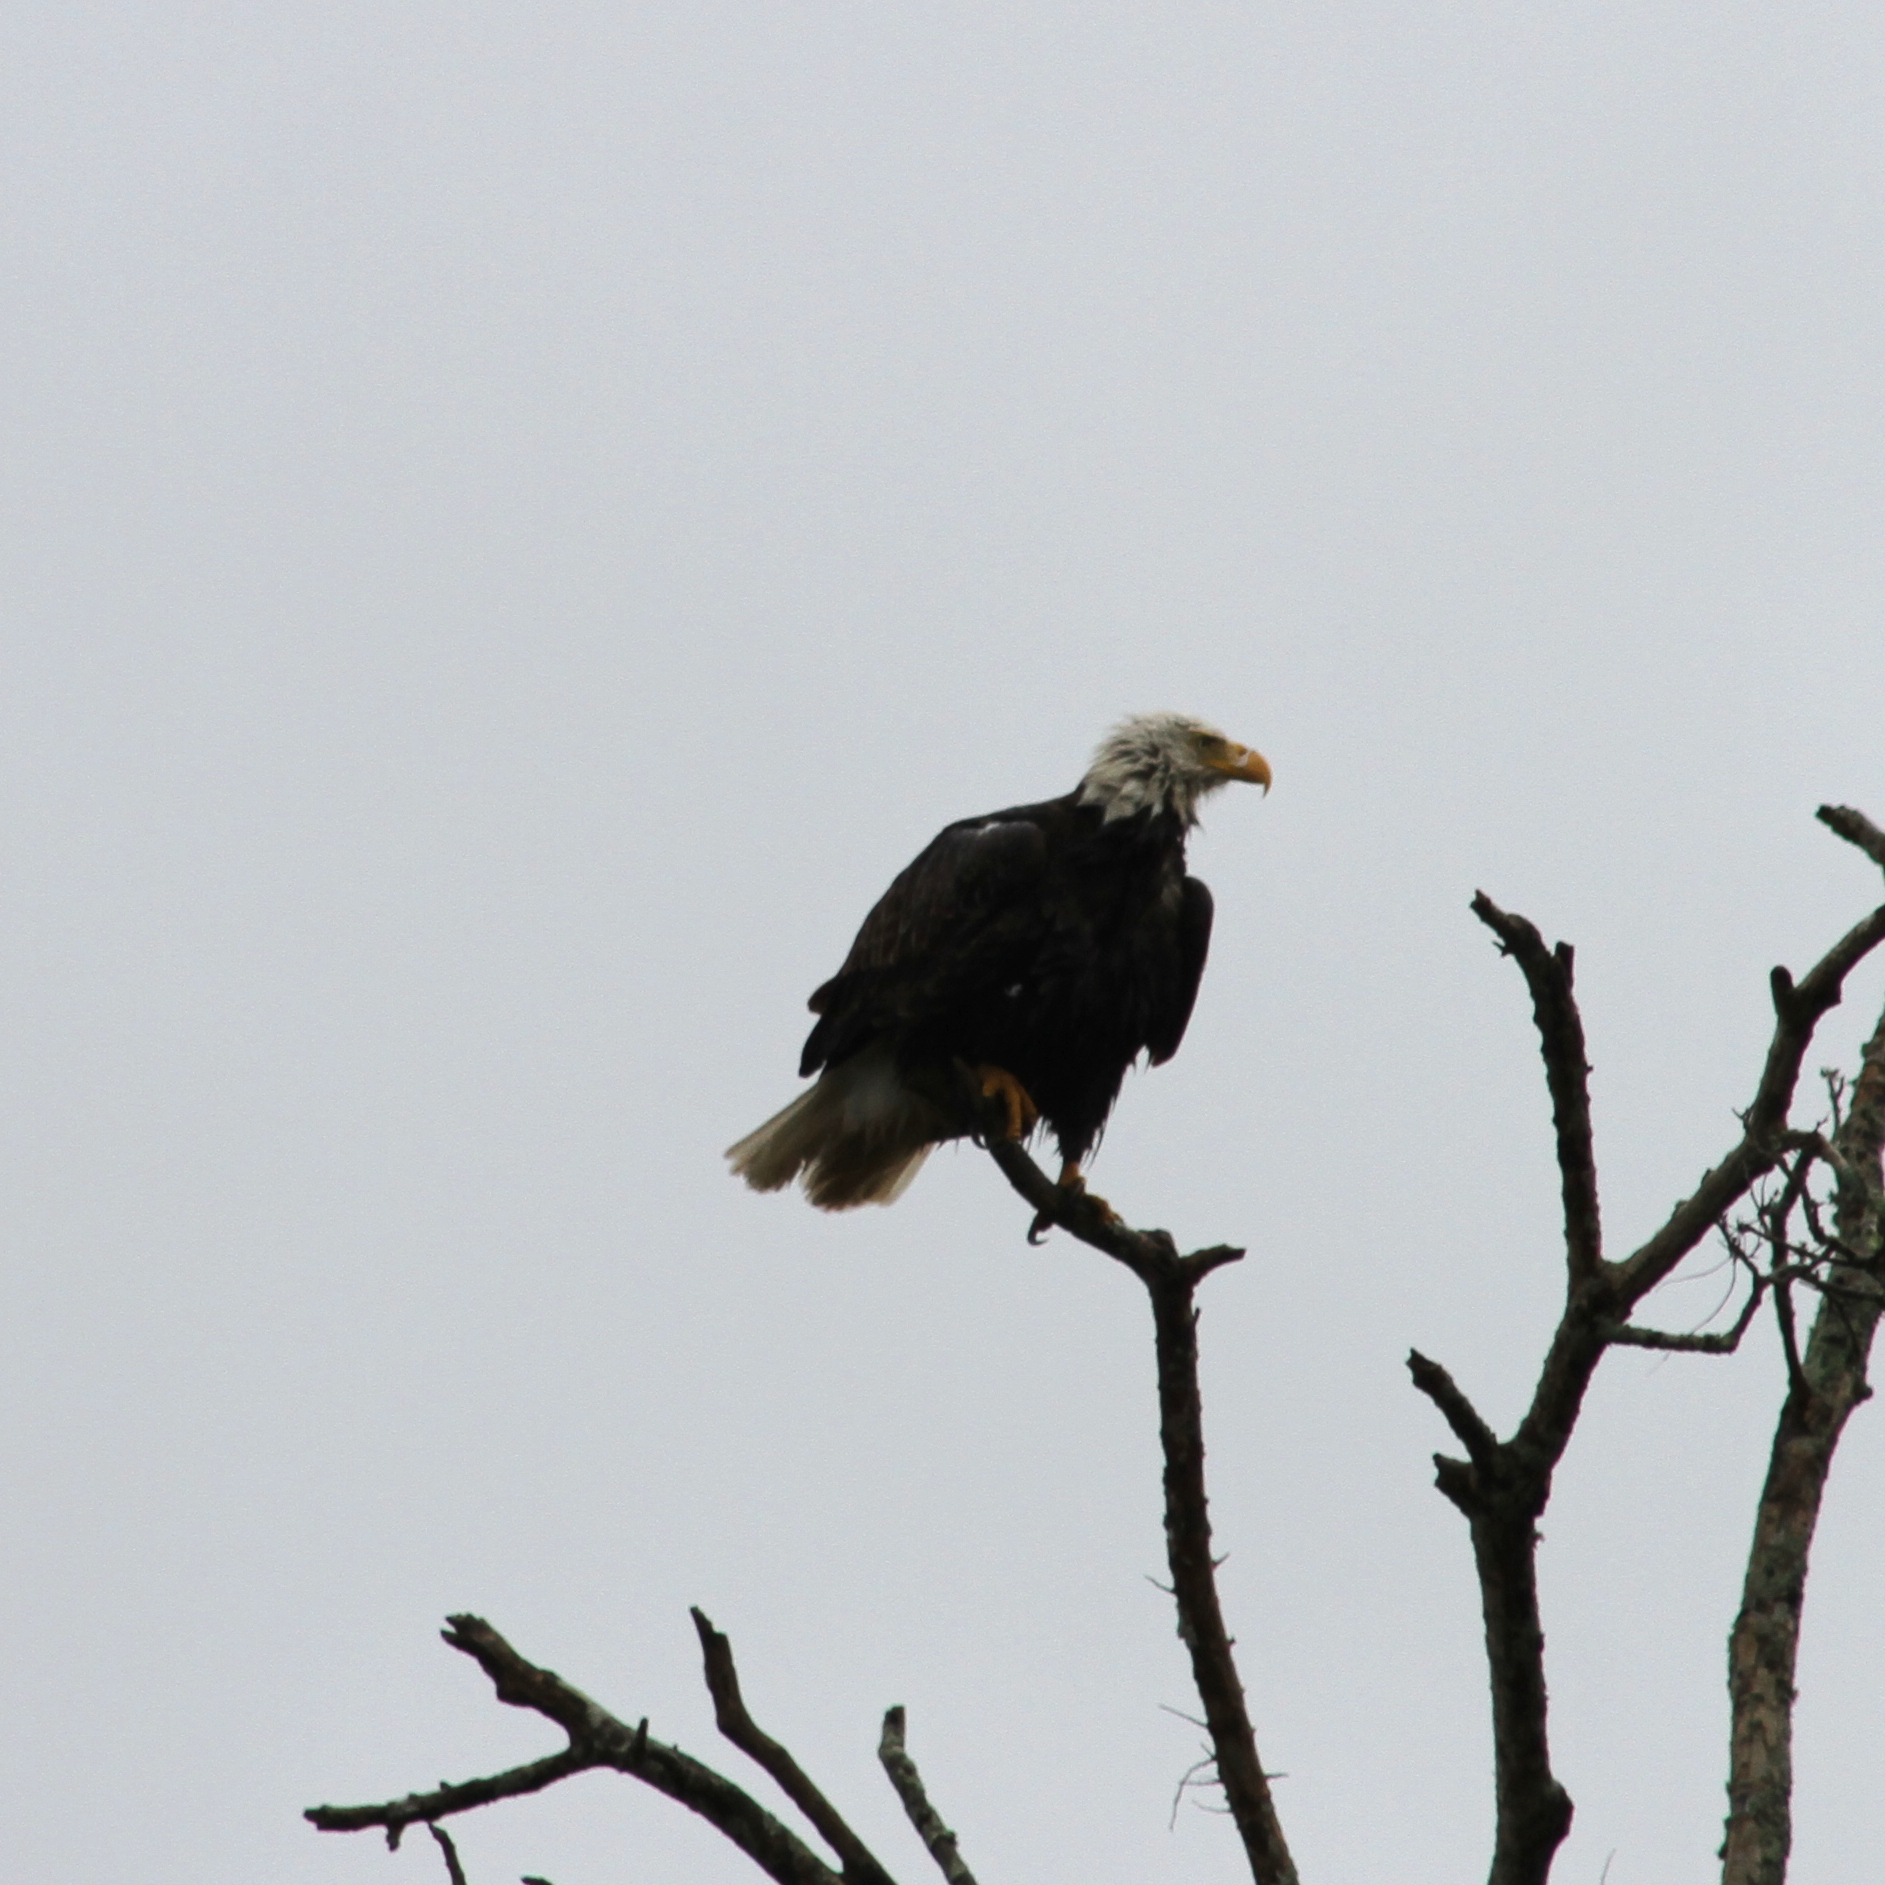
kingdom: Animalia
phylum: Chordata
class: Aves
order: Accipitriformes
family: Accipitridae
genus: Haliaeetus
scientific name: Haliaeetus leucocephalus
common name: Bald eagle
